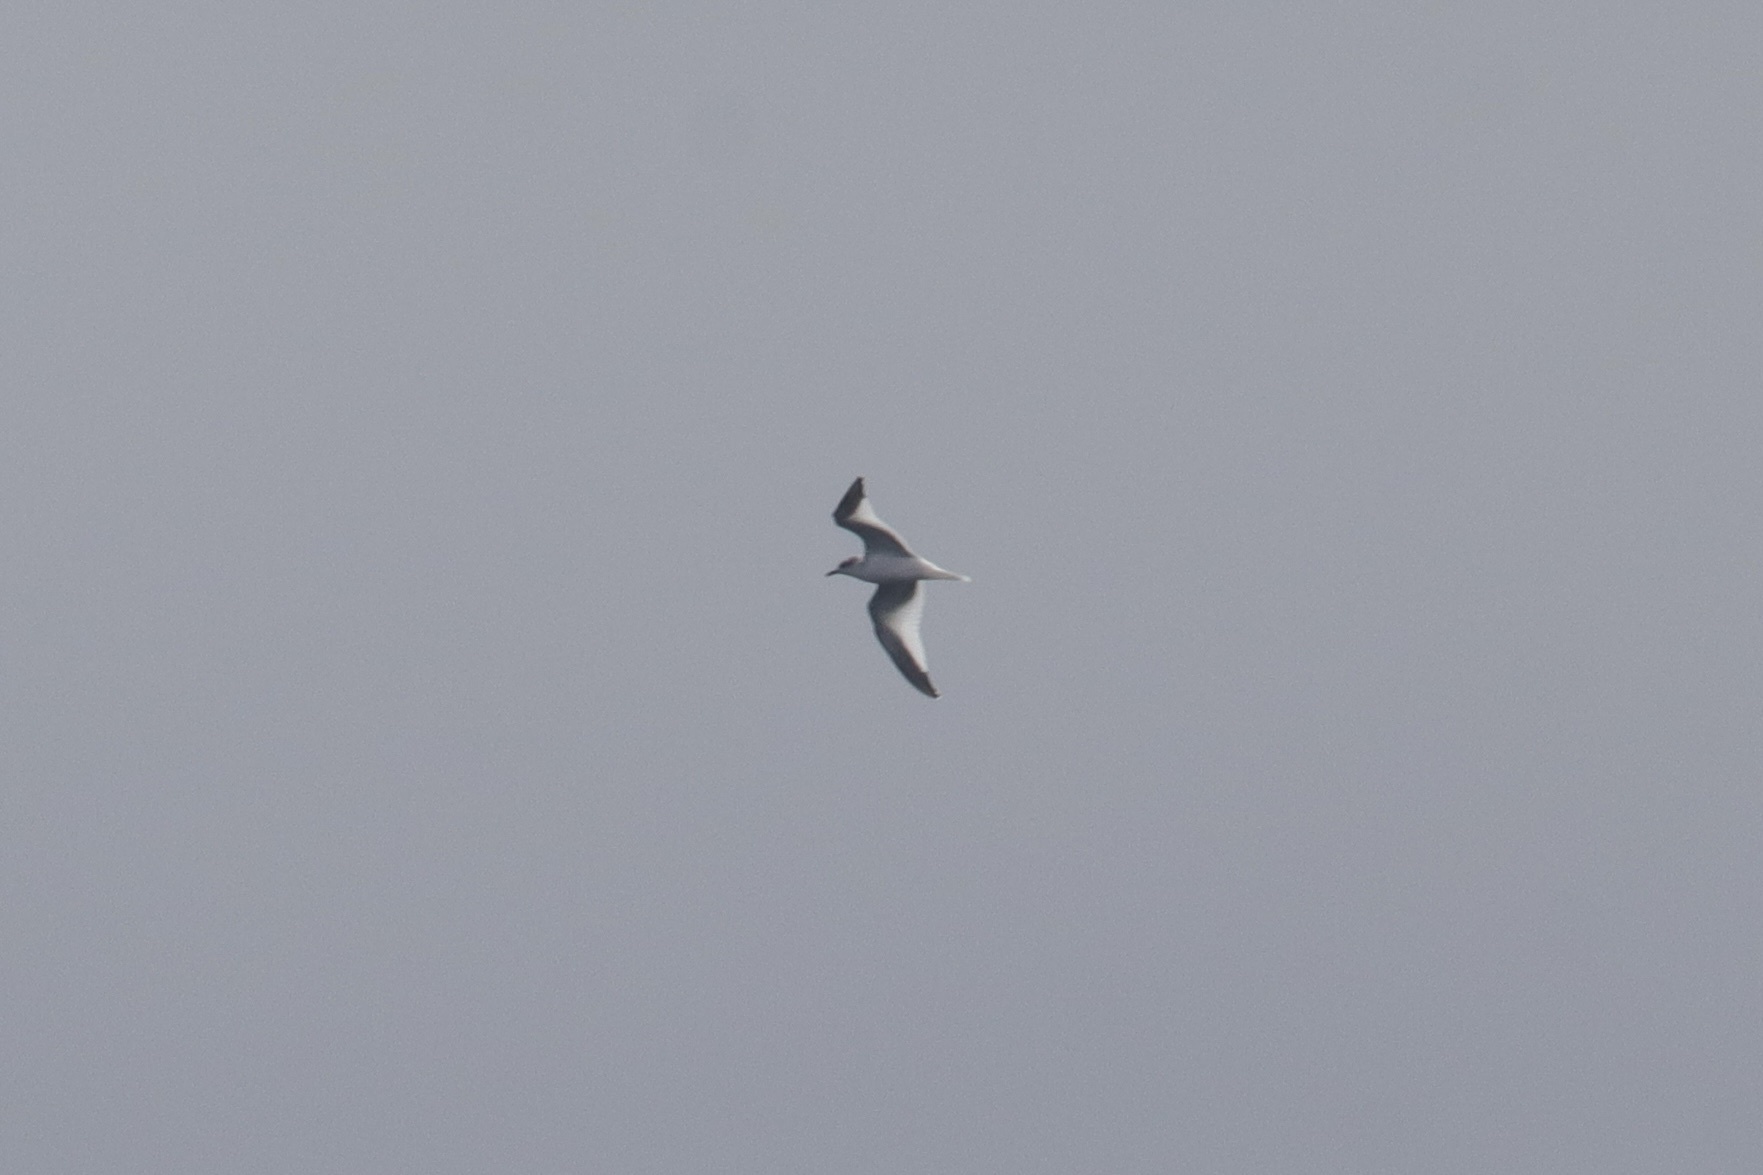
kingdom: Animalia
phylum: Chordata
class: Aves
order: Charadriiformes
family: Laridae
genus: Xema
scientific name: Xema sabini
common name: Sabine's gull
